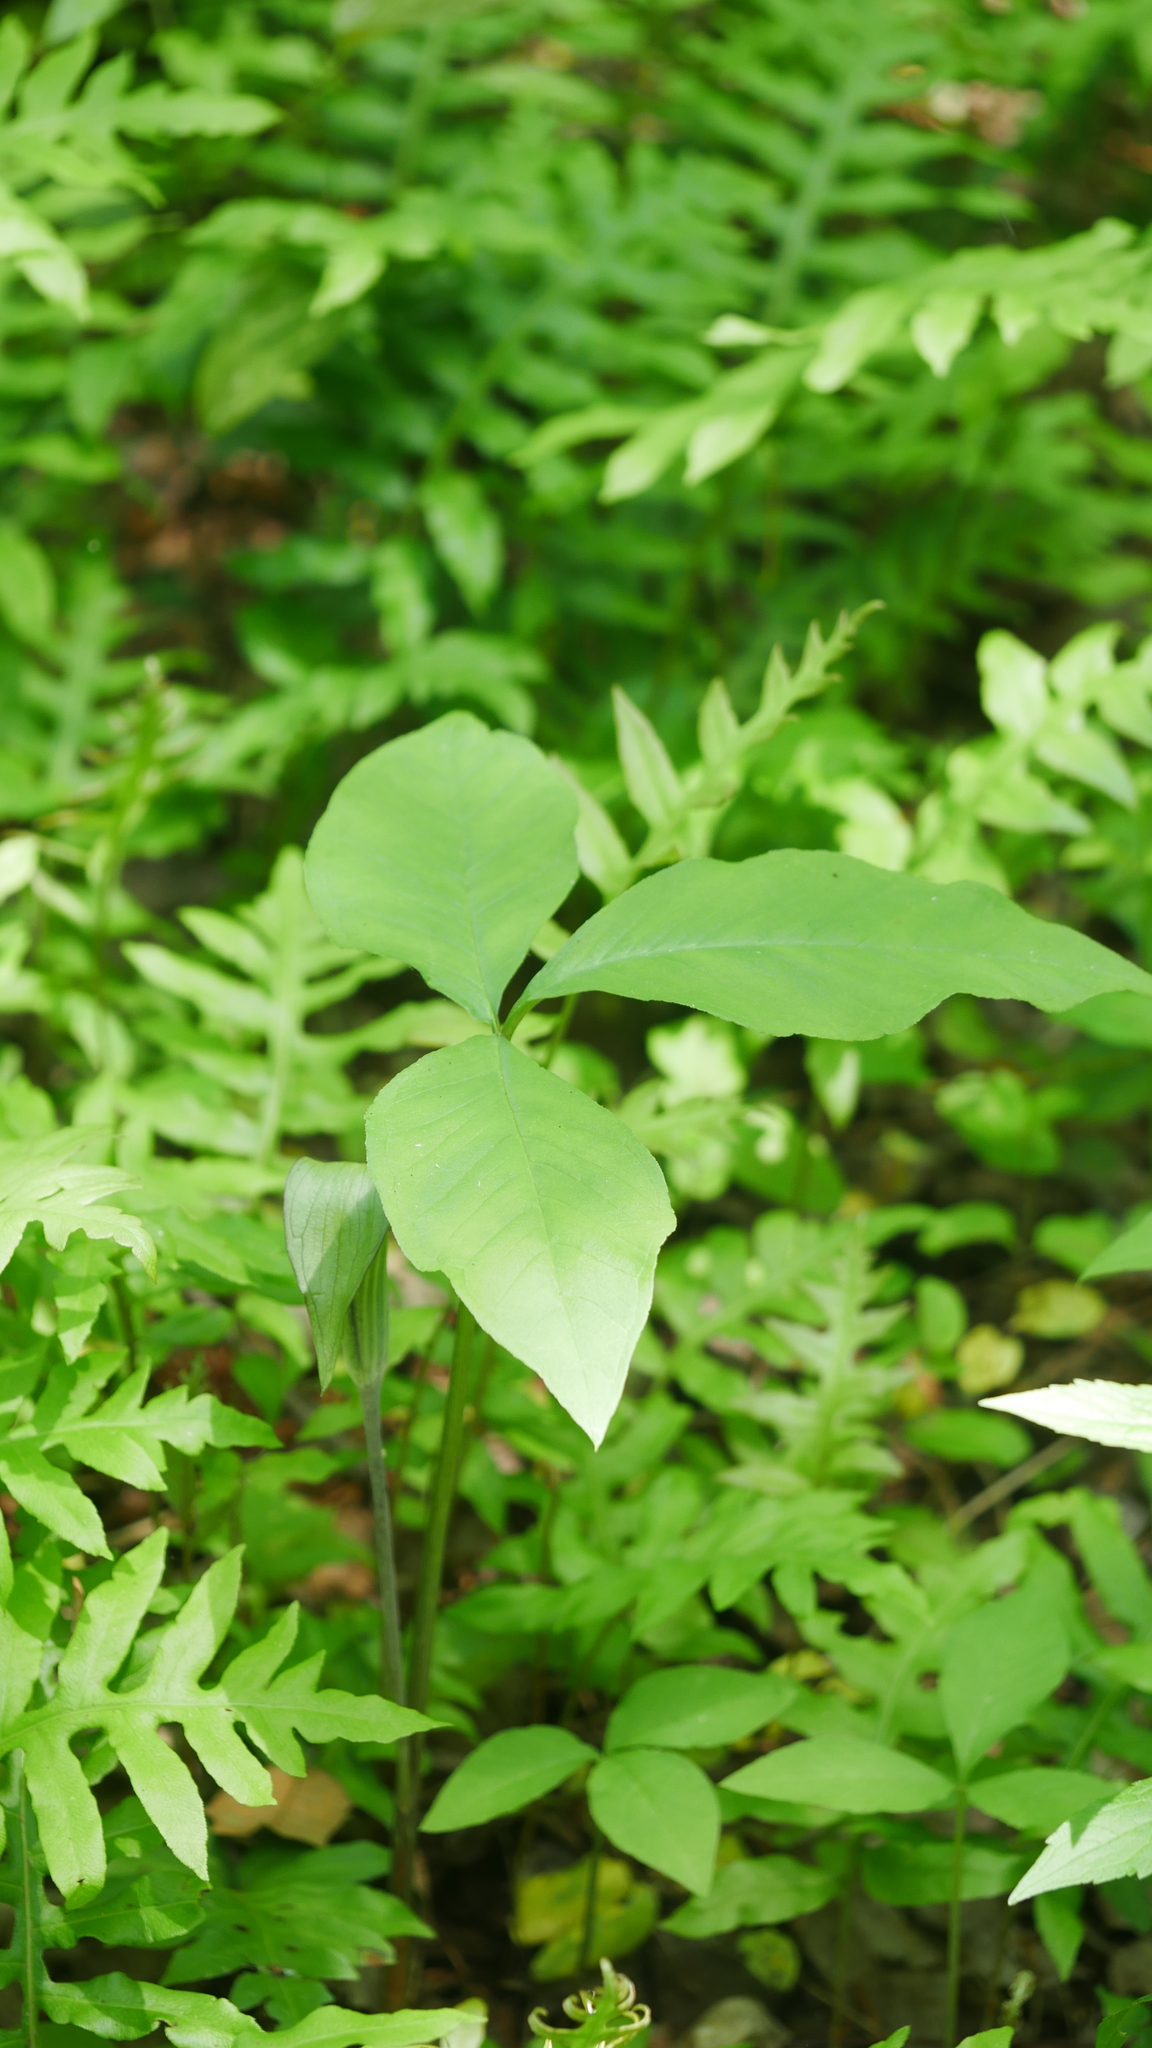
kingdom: Plantae
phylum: Tracheophyta
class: Liliopsida
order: Alismatales
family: Araceae
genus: Arisaema
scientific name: Arisaema triphyllum
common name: Jack-in-the-pulpit
